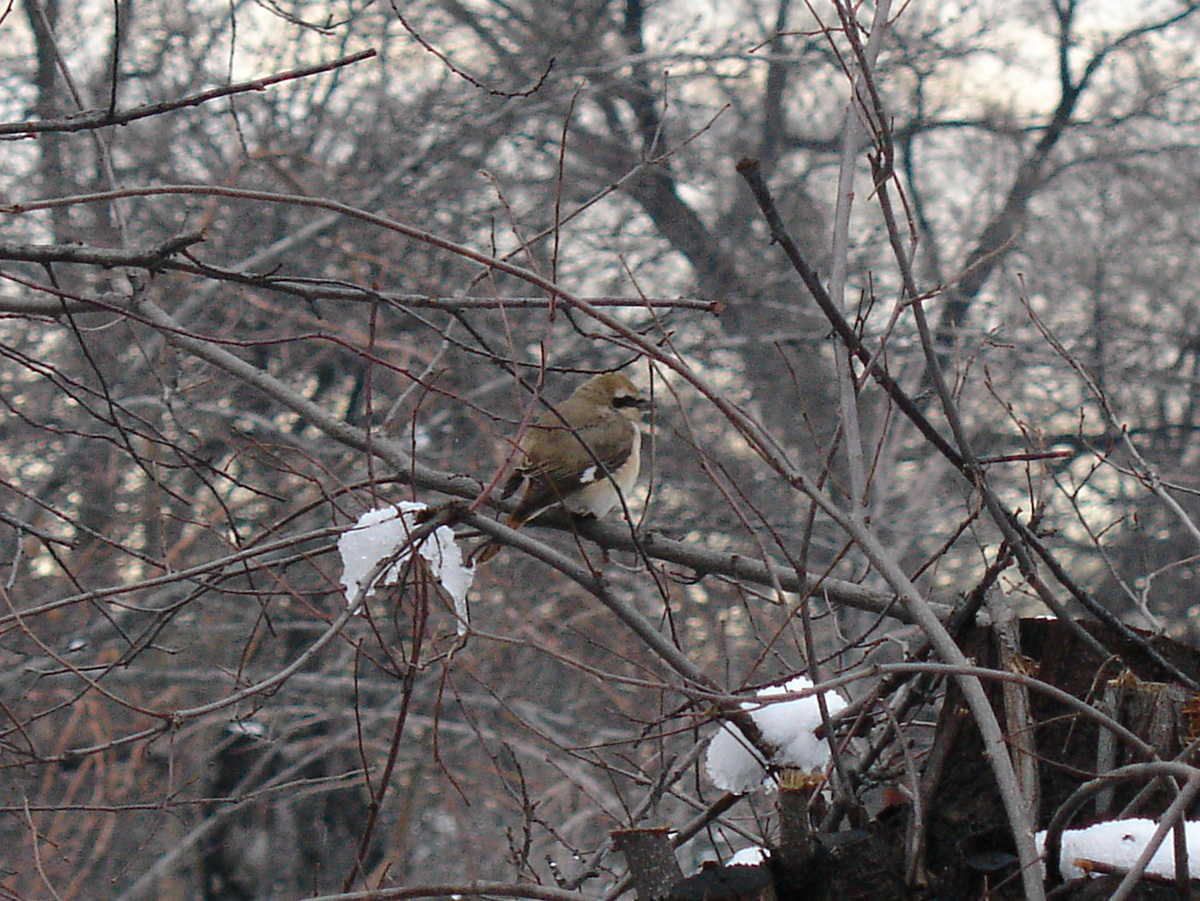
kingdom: Animalia
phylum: Chordata
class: Aves
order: Passeriformes
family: Laniidae
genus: Lanius
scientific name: Lanius phoenicuroides
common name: Red-tailed shrike
